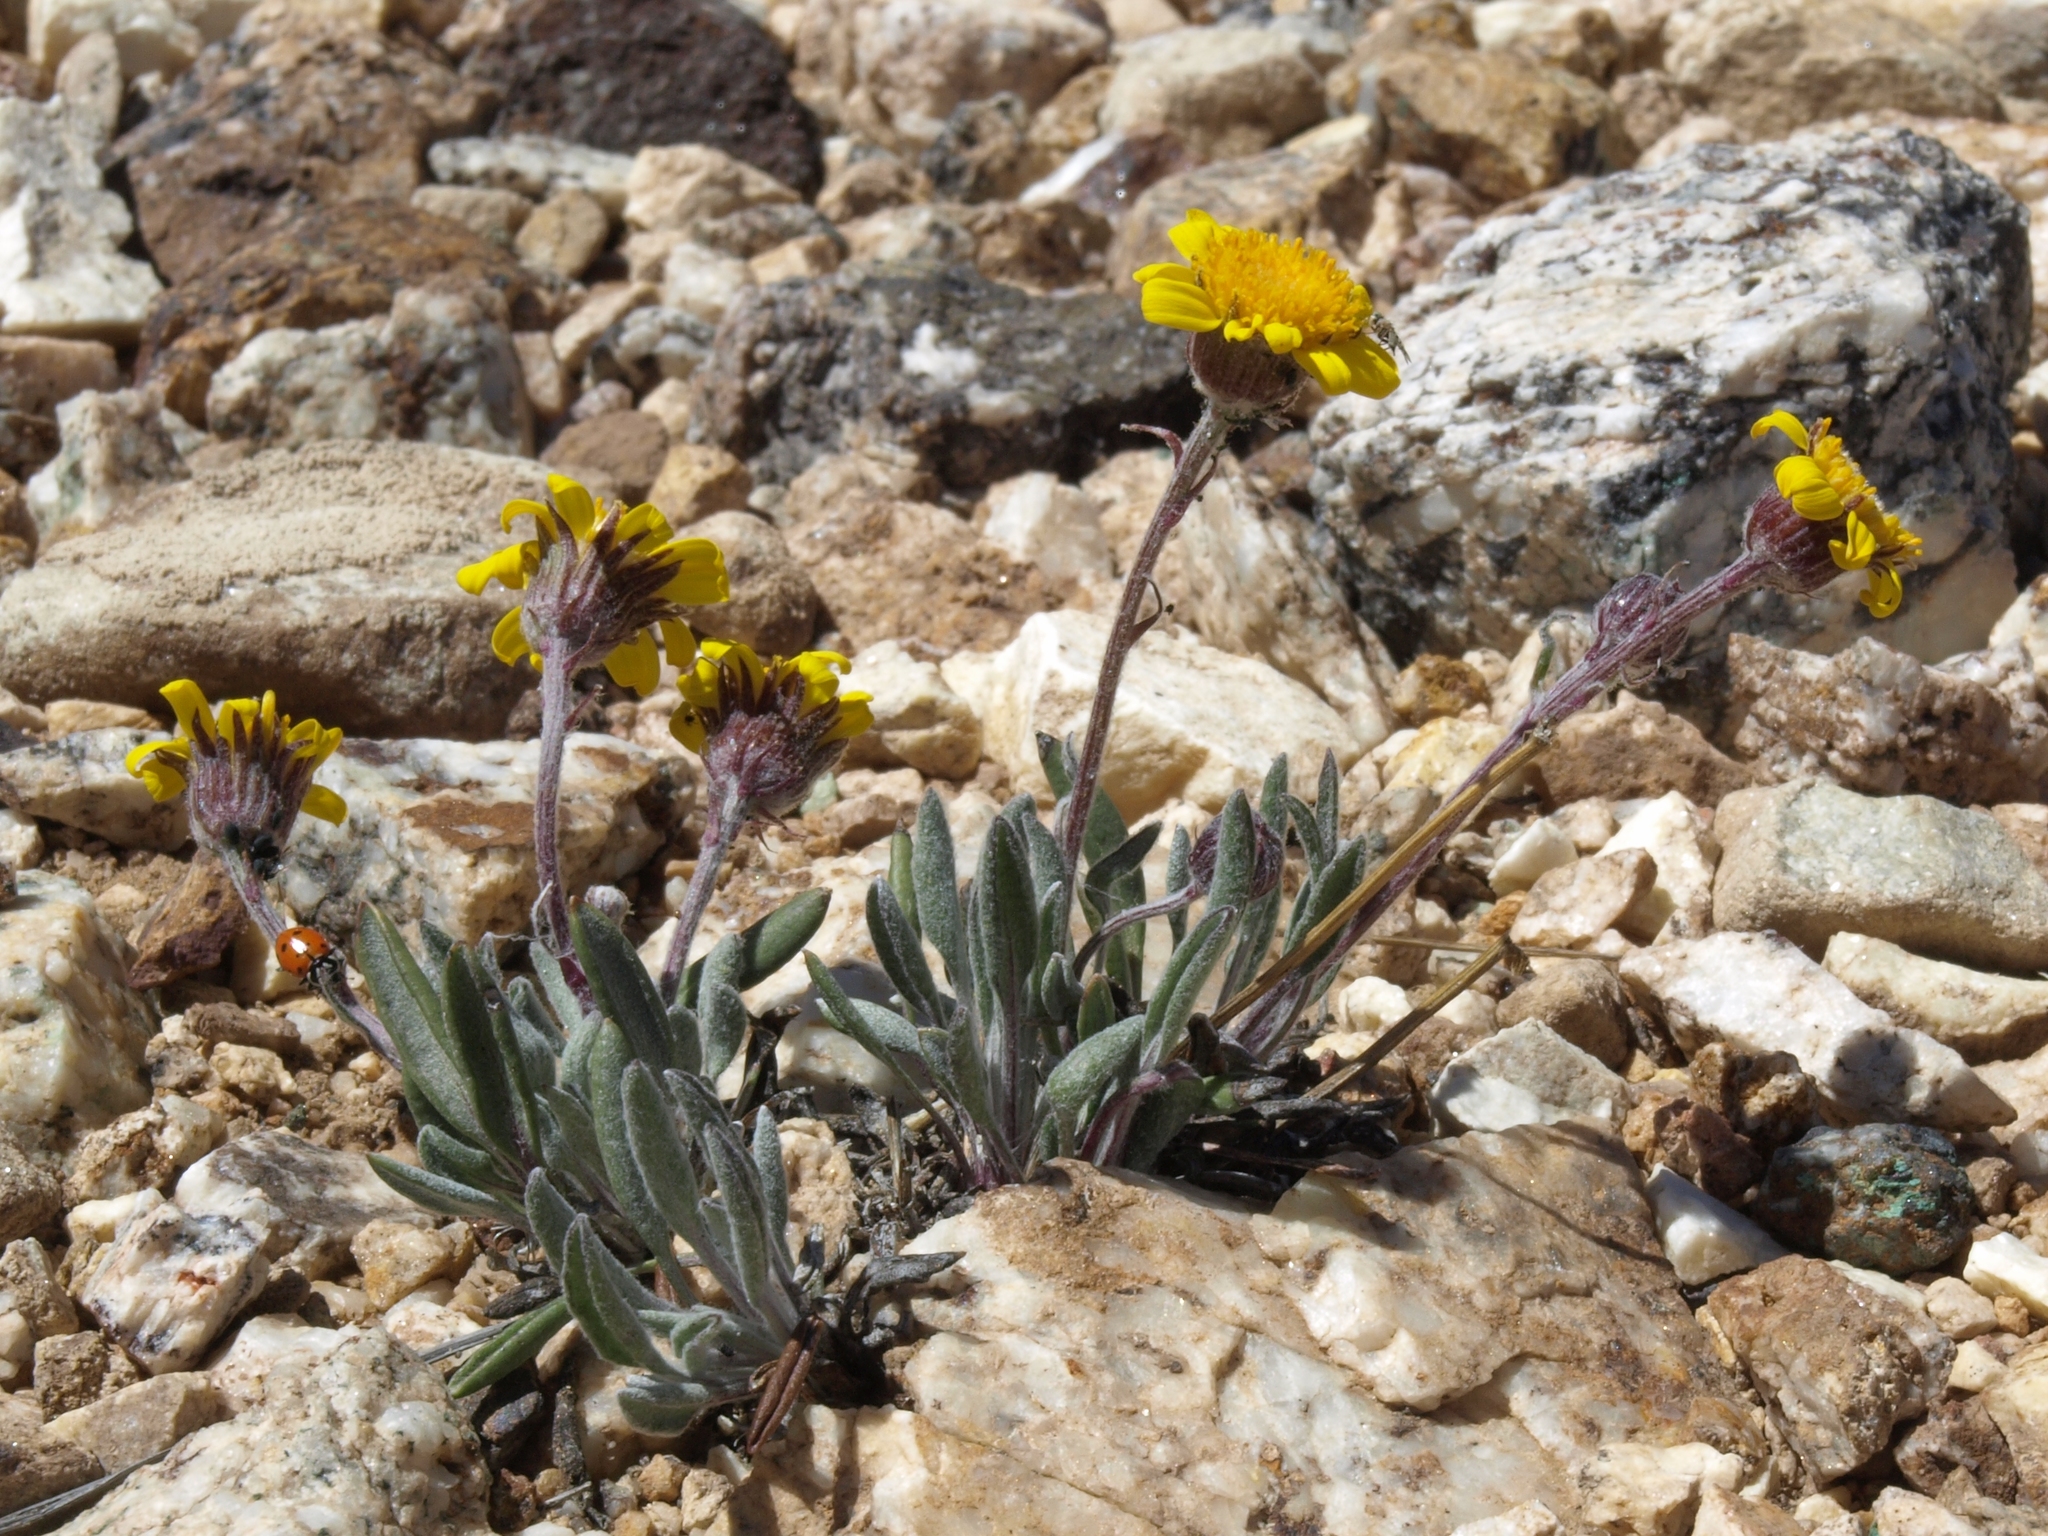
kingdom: Plantae
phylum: Tracheophyta
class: Magnoliopsida
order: Asterales
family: Asteraceae
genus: Packera
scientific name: Packera werneriifolia
